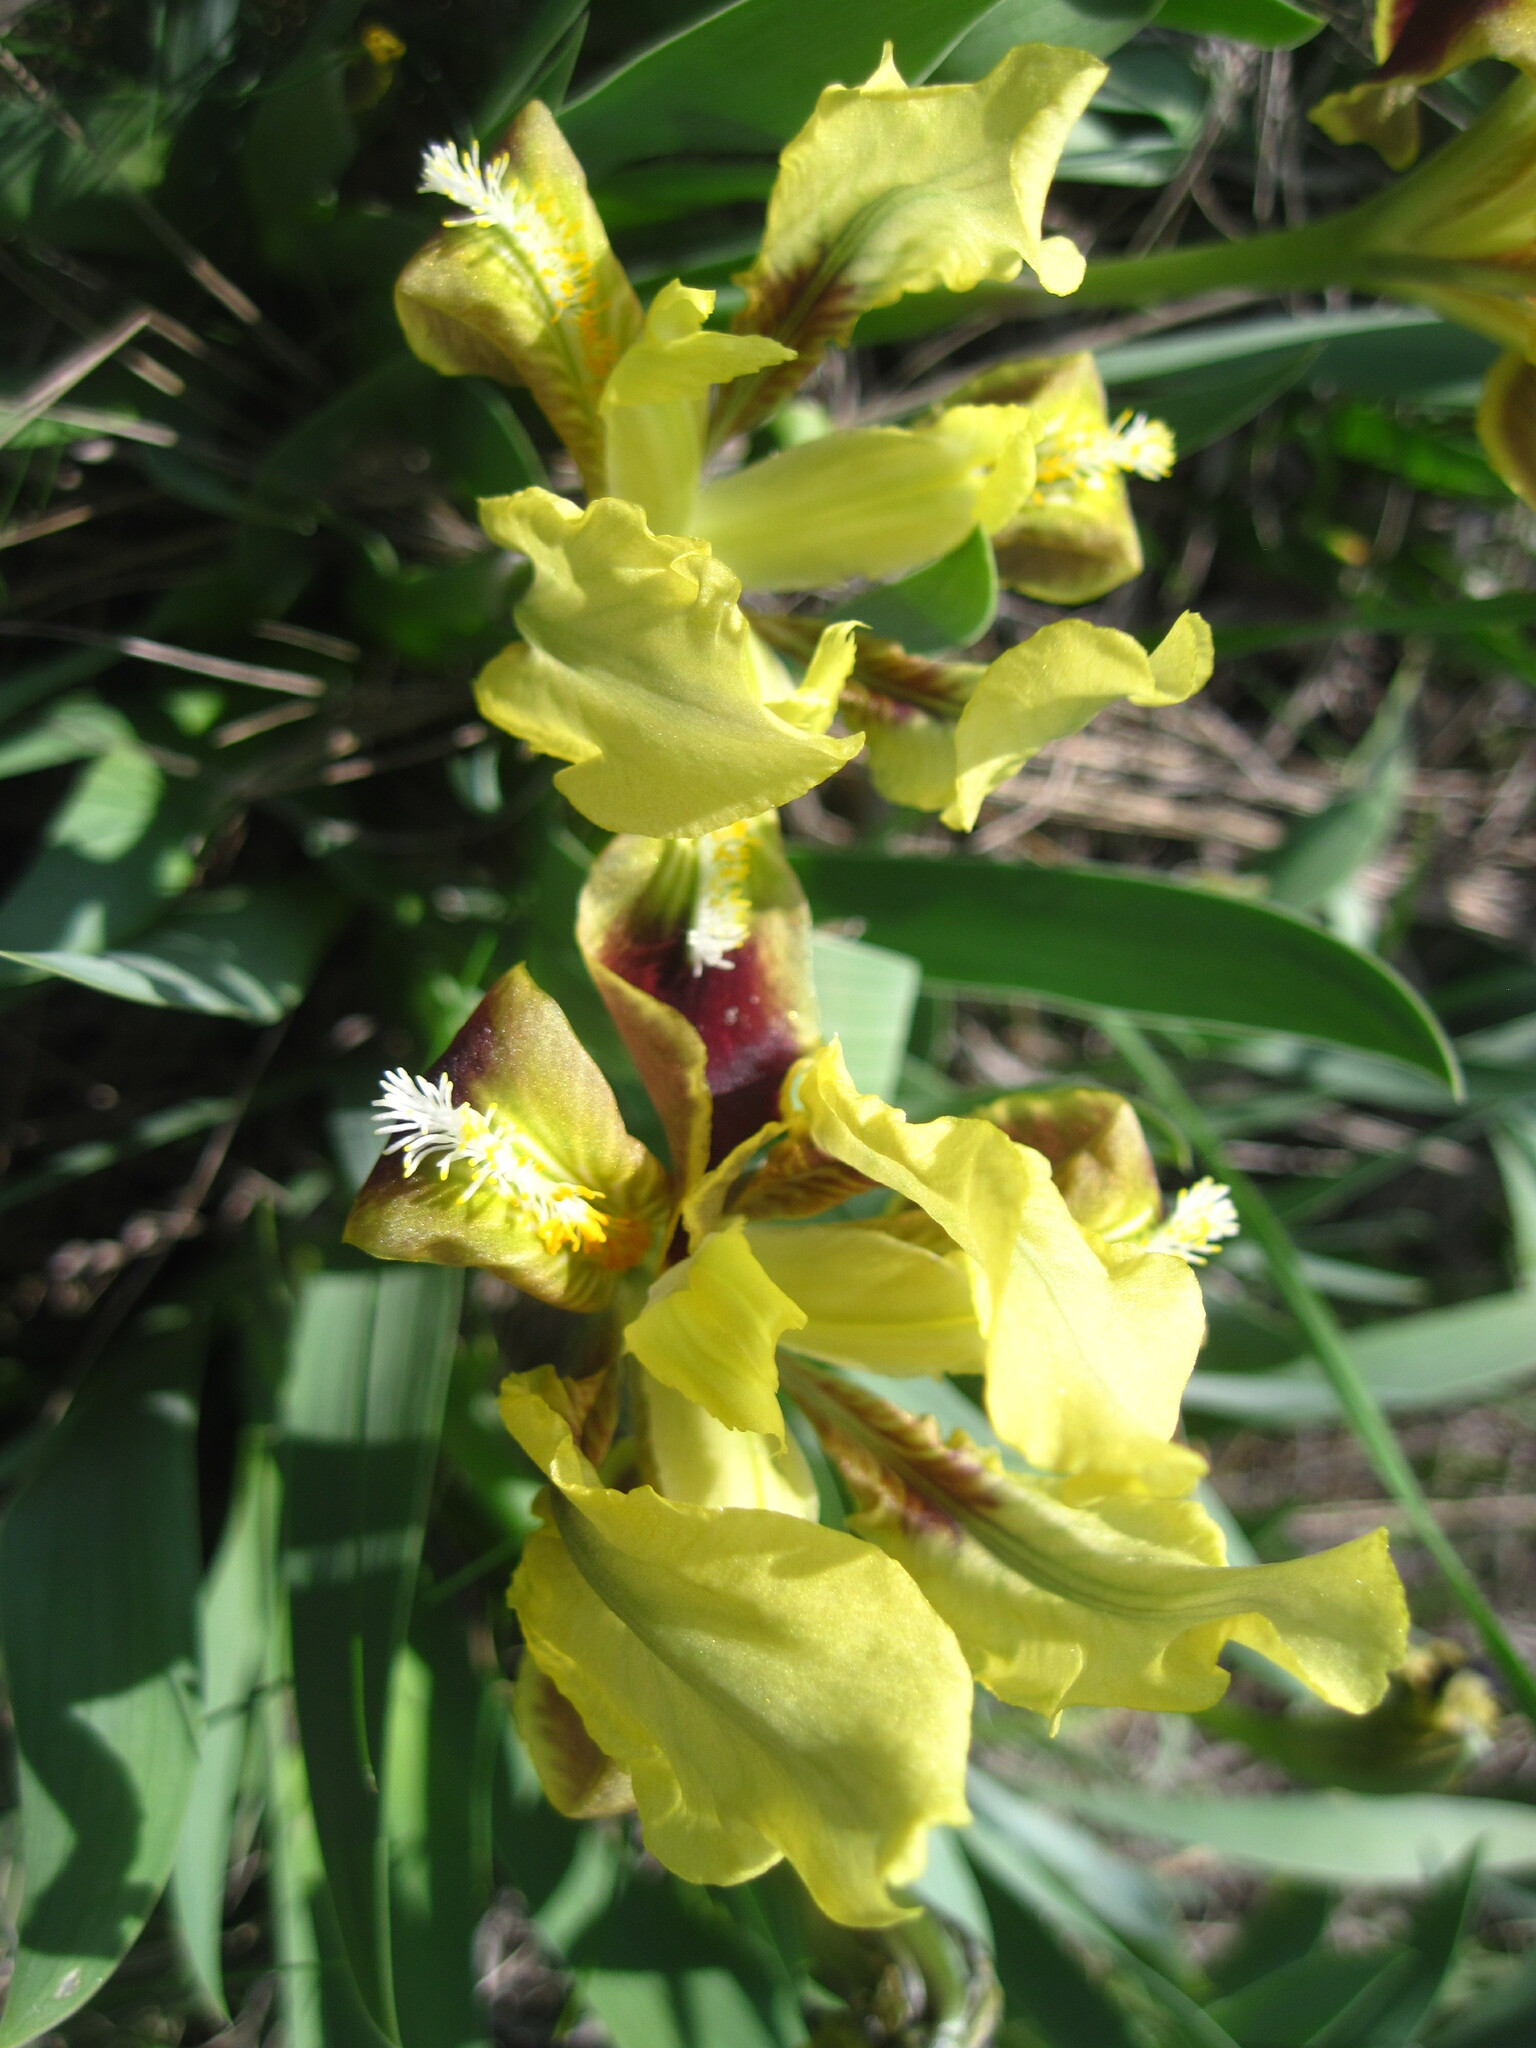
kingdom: Plantae
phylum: Tracheophyta
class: Liliopsida
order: Asparagales
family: Iridaceae
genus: Iris
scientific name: Iris pumila
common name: Dwarf iris
